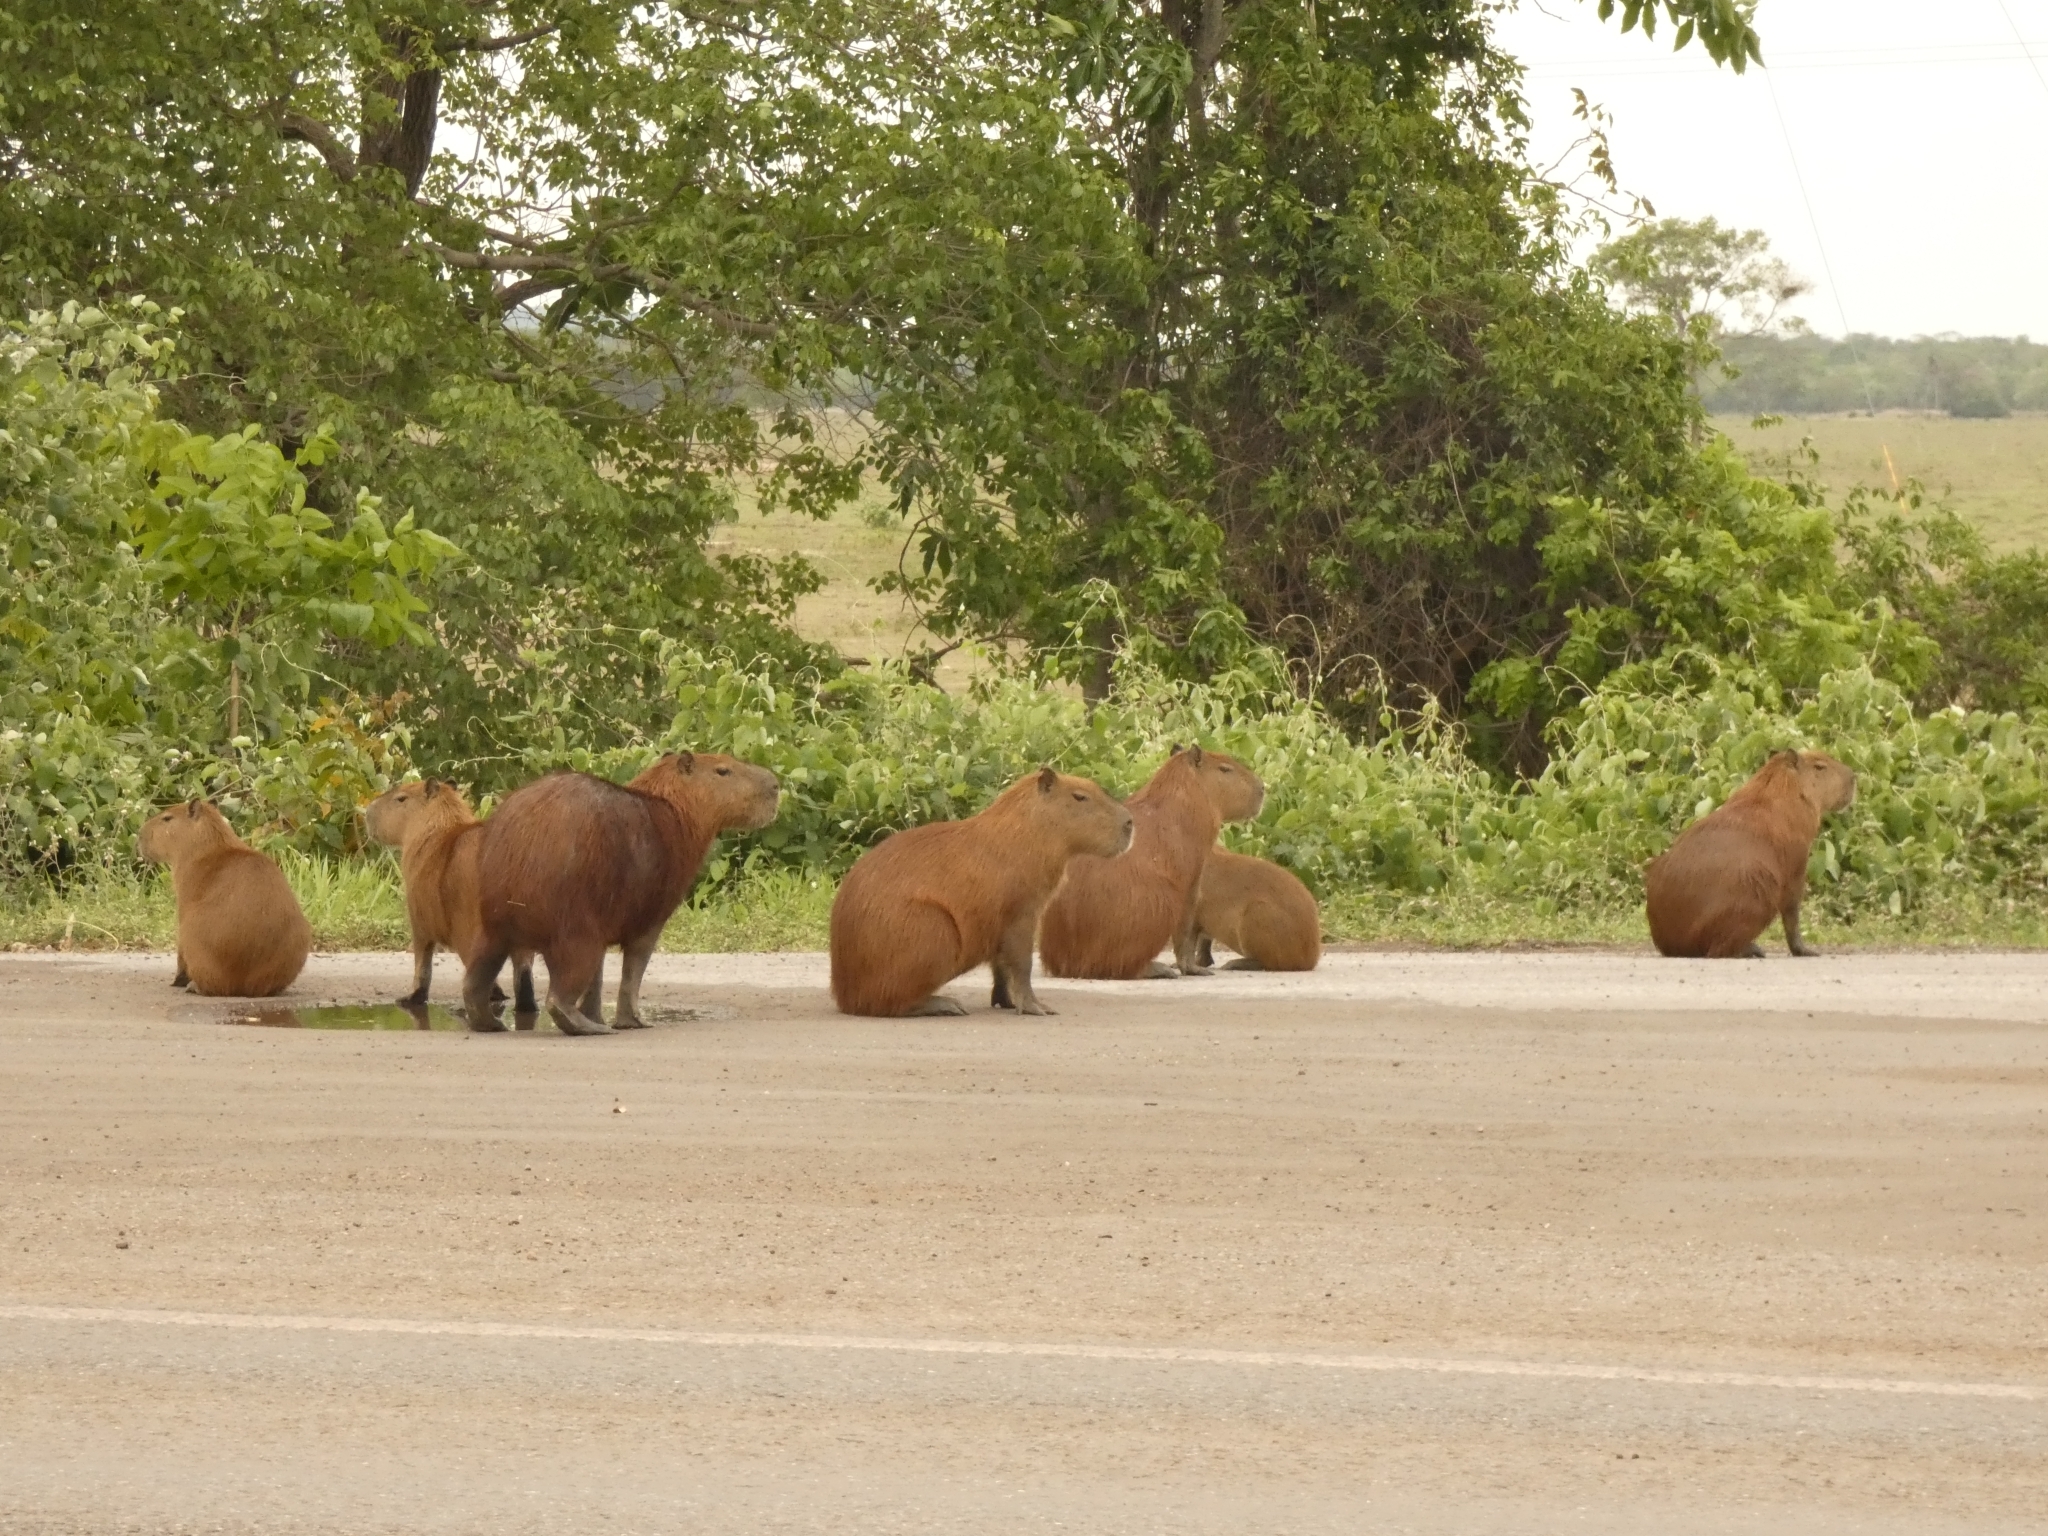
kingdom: Animalia
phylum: Chordata
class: Mammalia
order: Rodentia
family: Caviidae
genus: Hydrochoerus
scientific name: Hydrochoerus hydrochaeris
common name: Capybara
